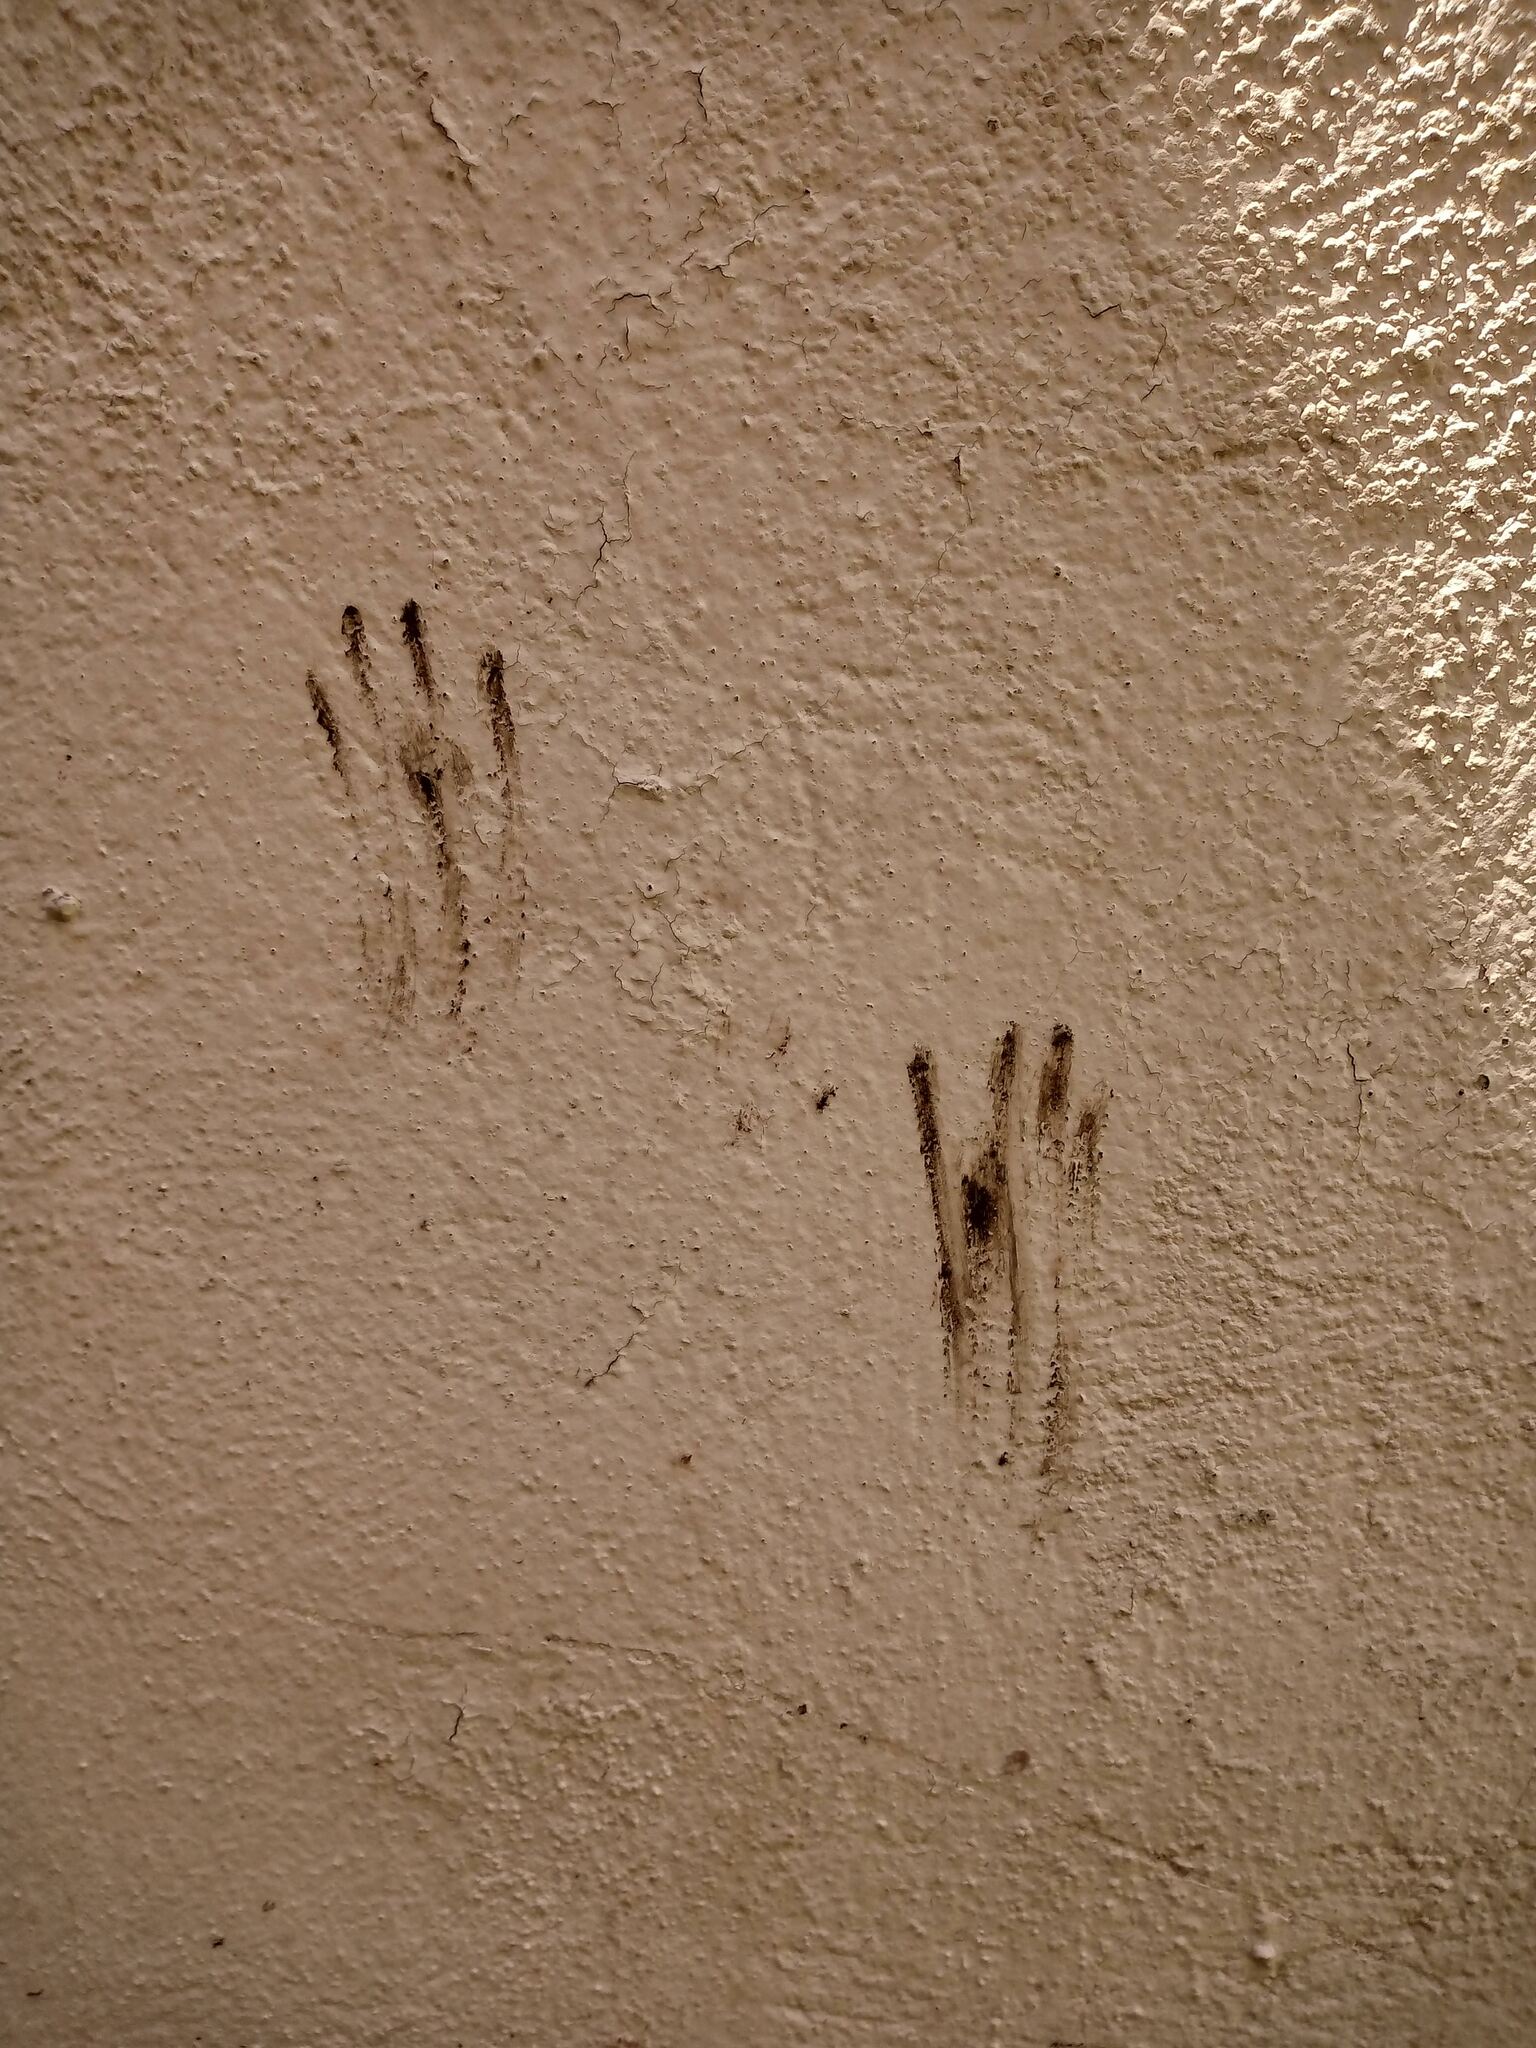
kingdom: Animalia
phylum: Chordata
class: Mammalia
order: Carnivora
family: Felidae
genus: Felis
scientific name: Felis catus
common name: Domestic cat
